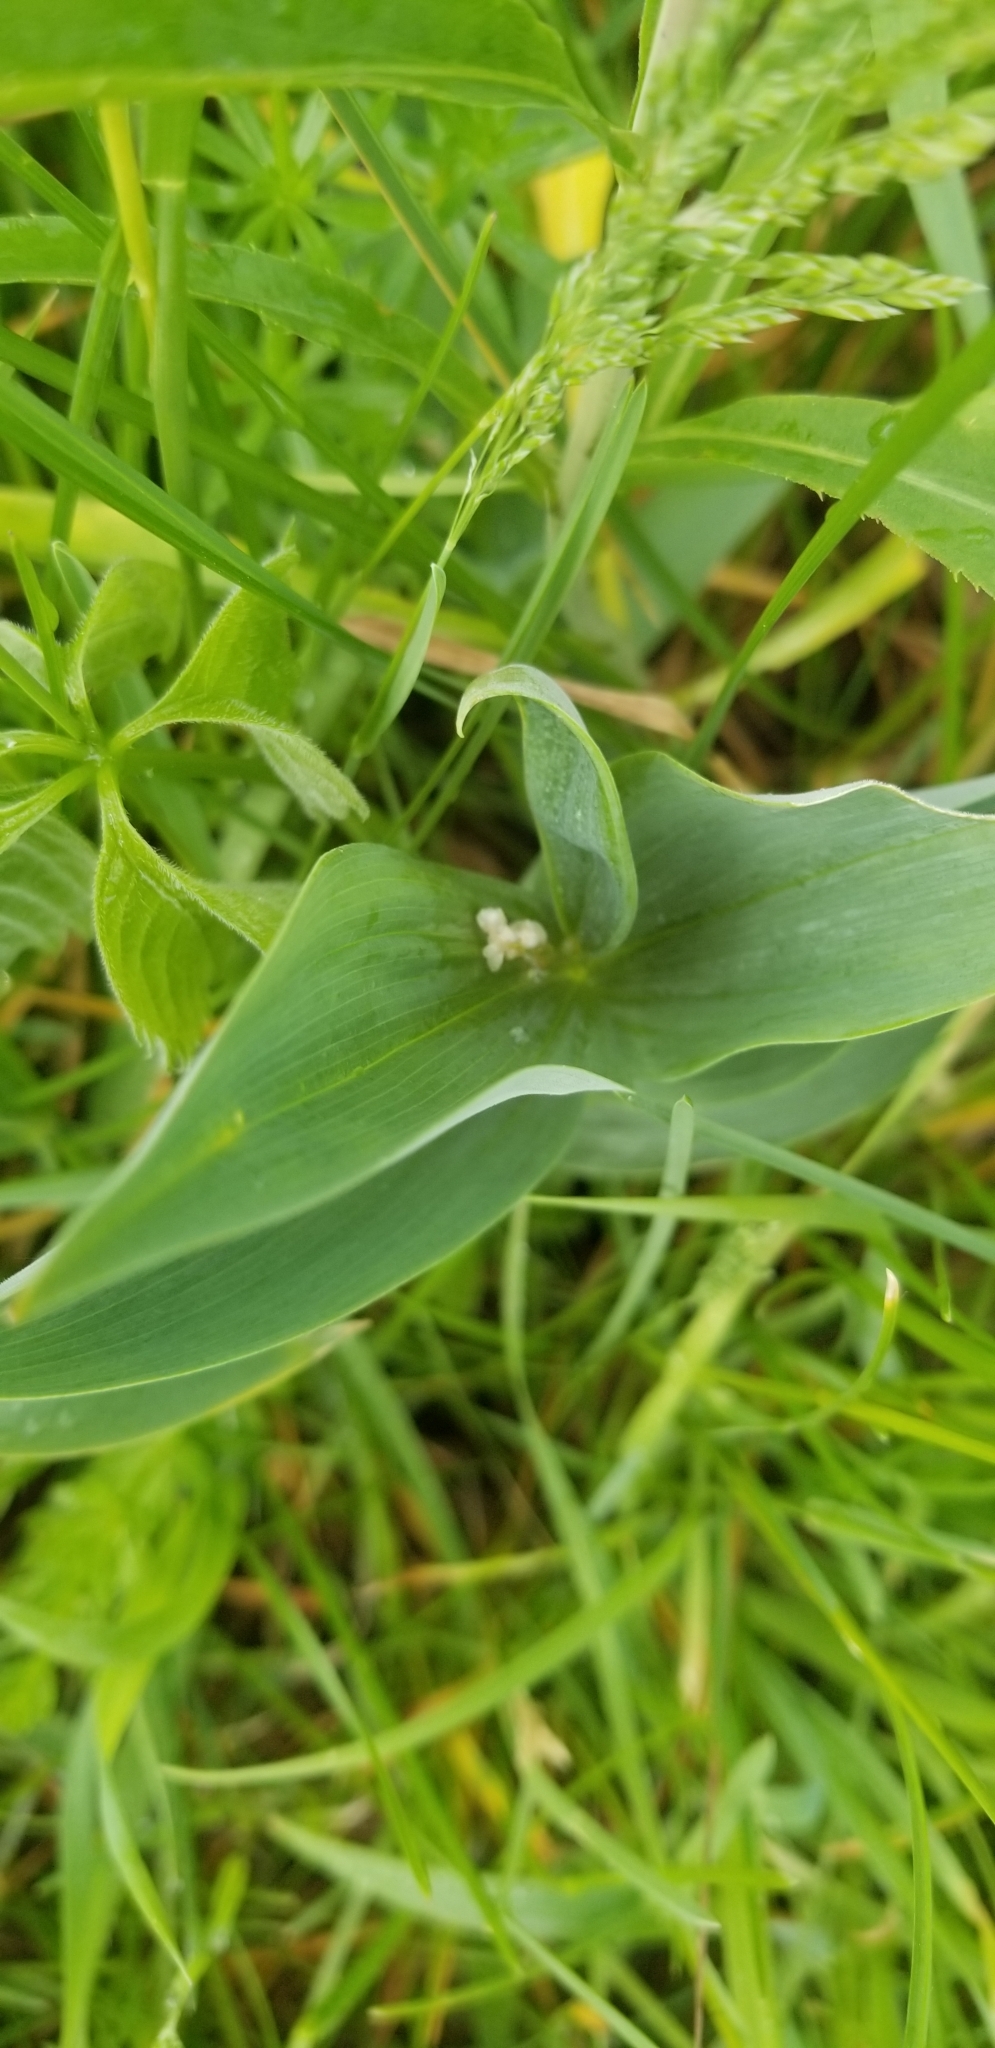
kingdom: Plantae
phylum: Tracheophyta
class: Liliopsida
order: Asparagales
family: Asparagaceae
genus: Maianthemum
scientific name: Maianthemum stellatum
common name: Little false solomon's seal
